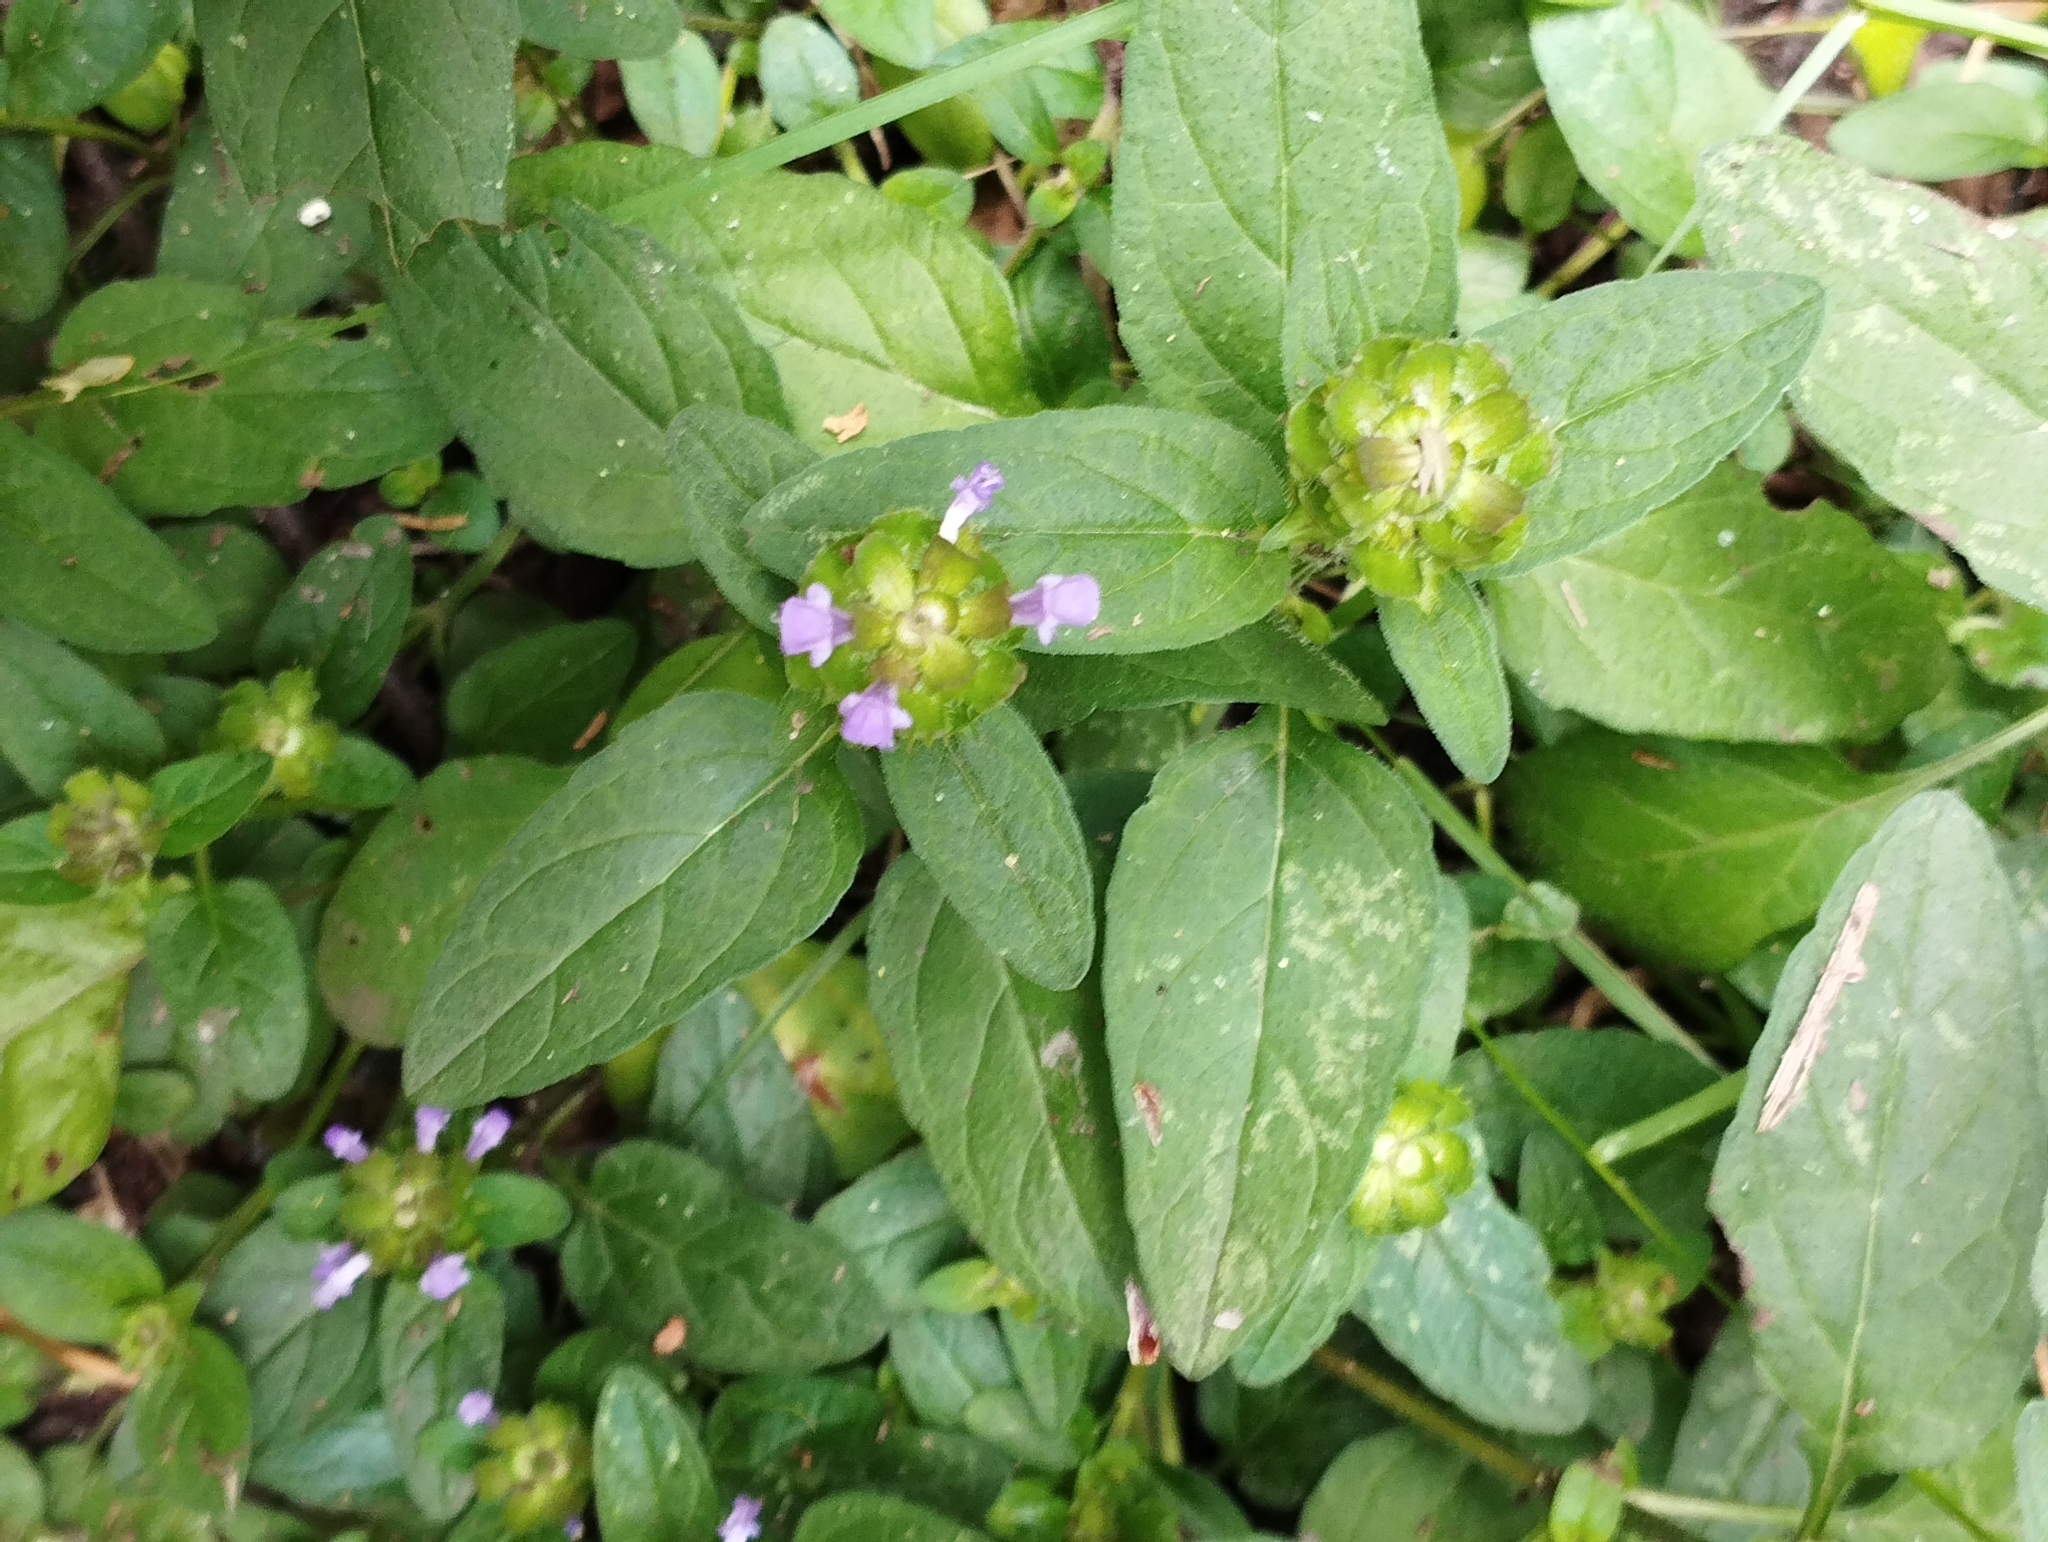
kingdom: Plantae
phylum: Tracheophyta
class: Magnoliopsida
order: Lamiales
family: Lamiaceae
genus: Prunella
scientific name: Prunella vulgaris
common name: Heal-all
